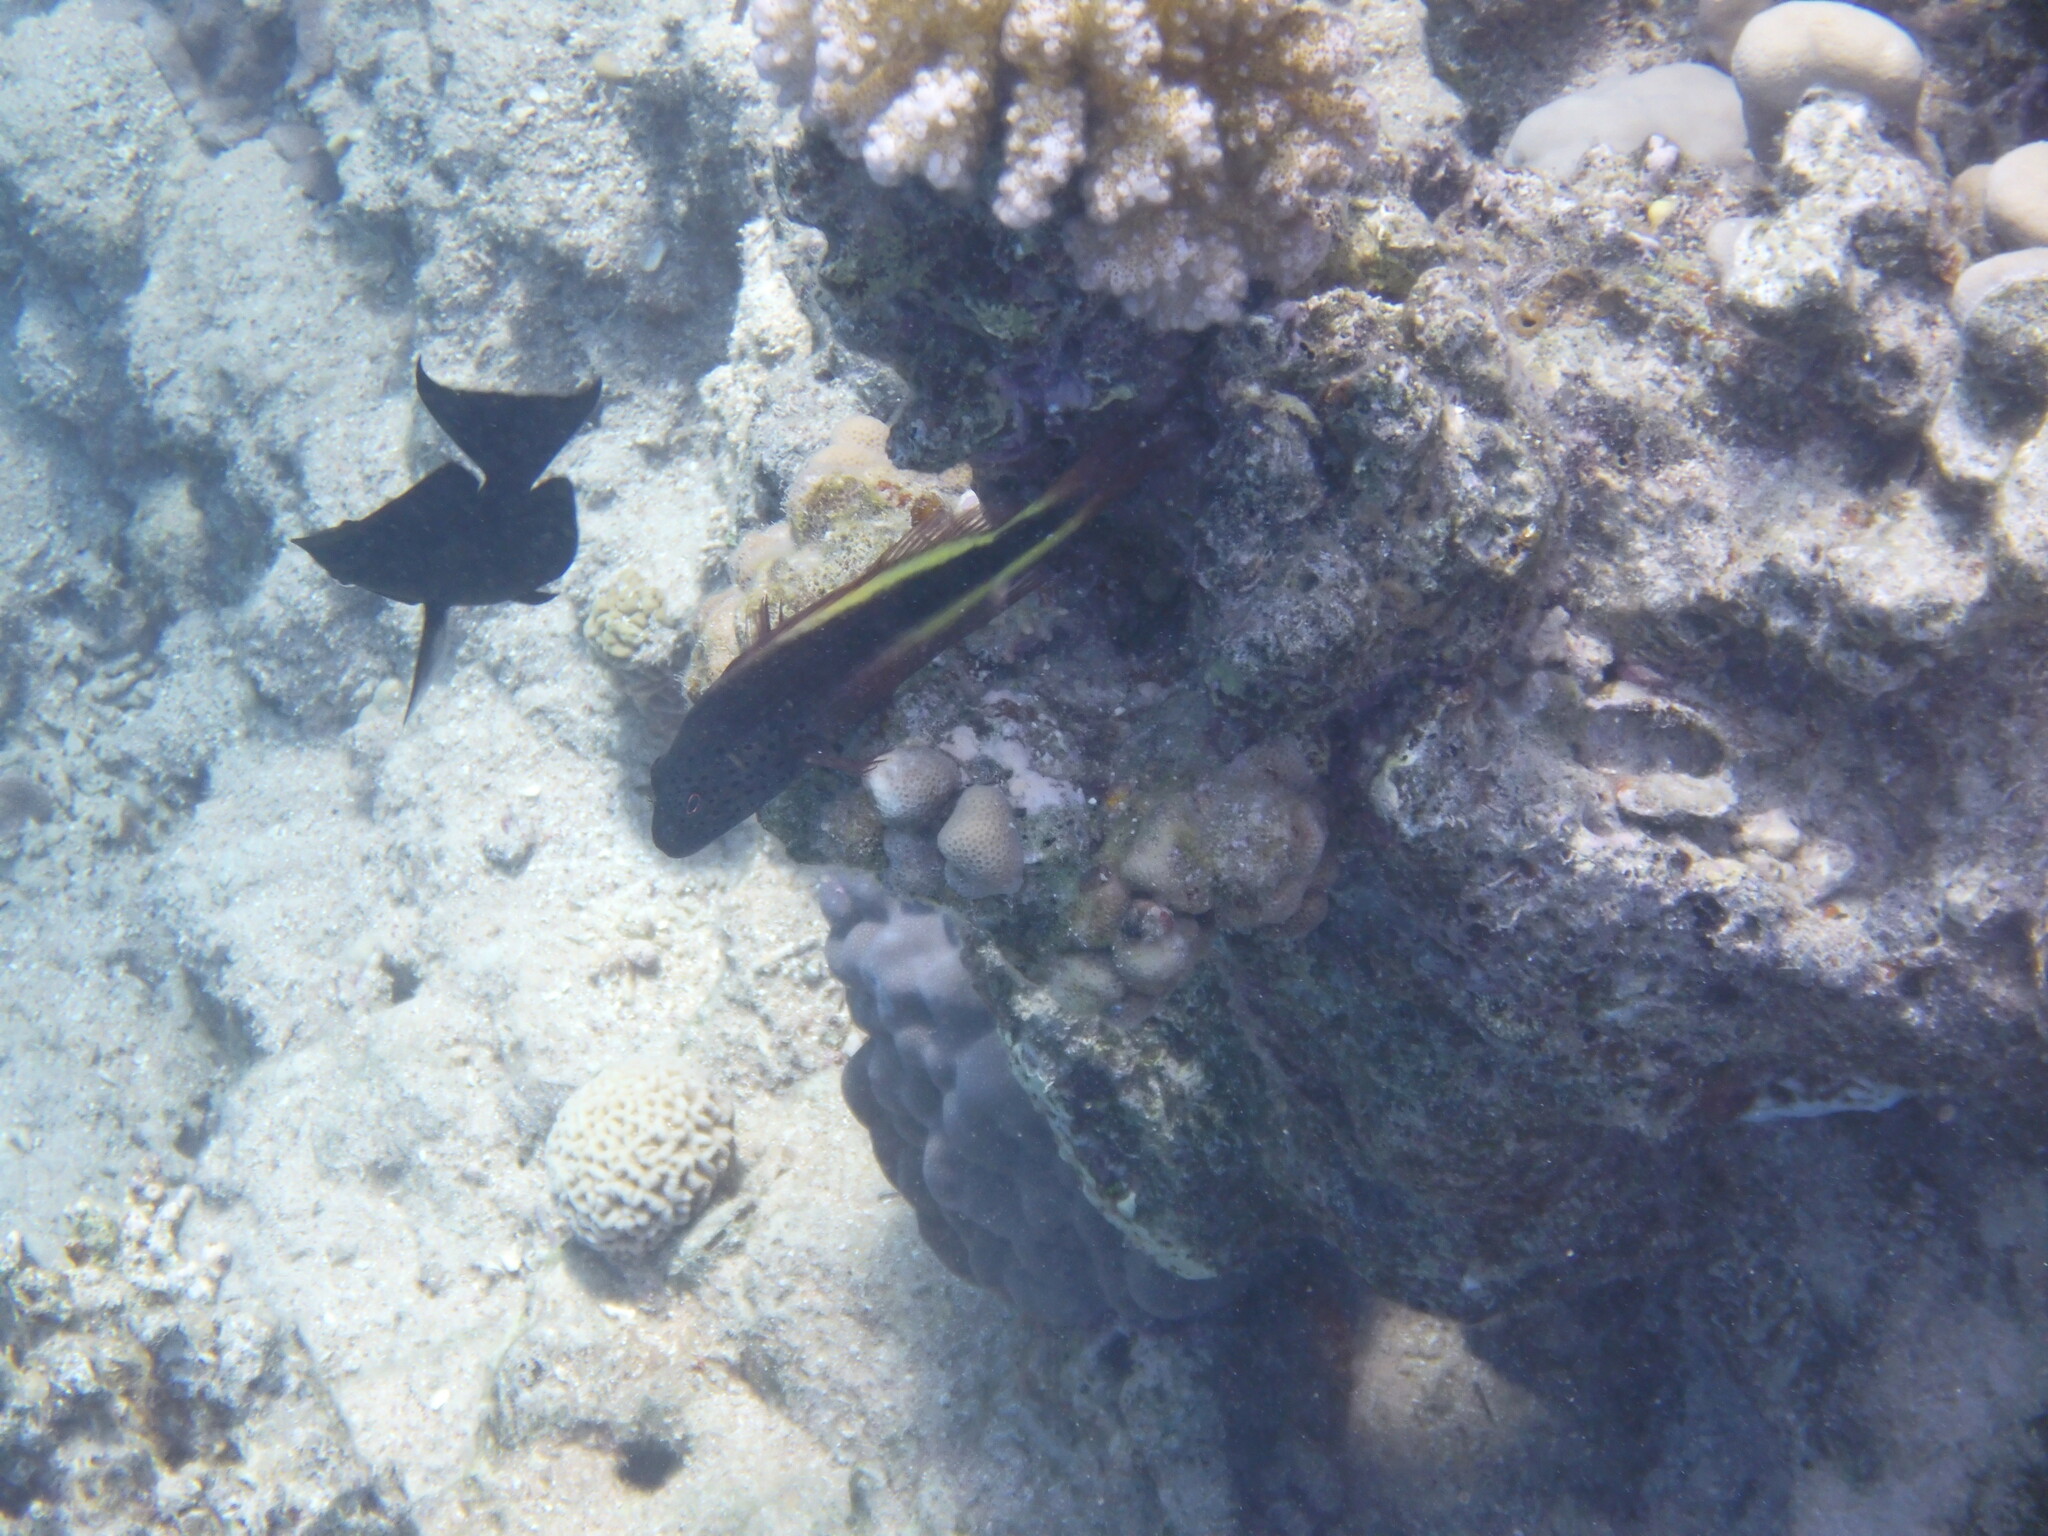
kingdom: Animalia
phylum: Chordata
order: Perciformes
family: Cirrhitidae
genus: Paracirrhites
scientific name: Paracirrhites forsteri
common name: Freckled hawkfish
